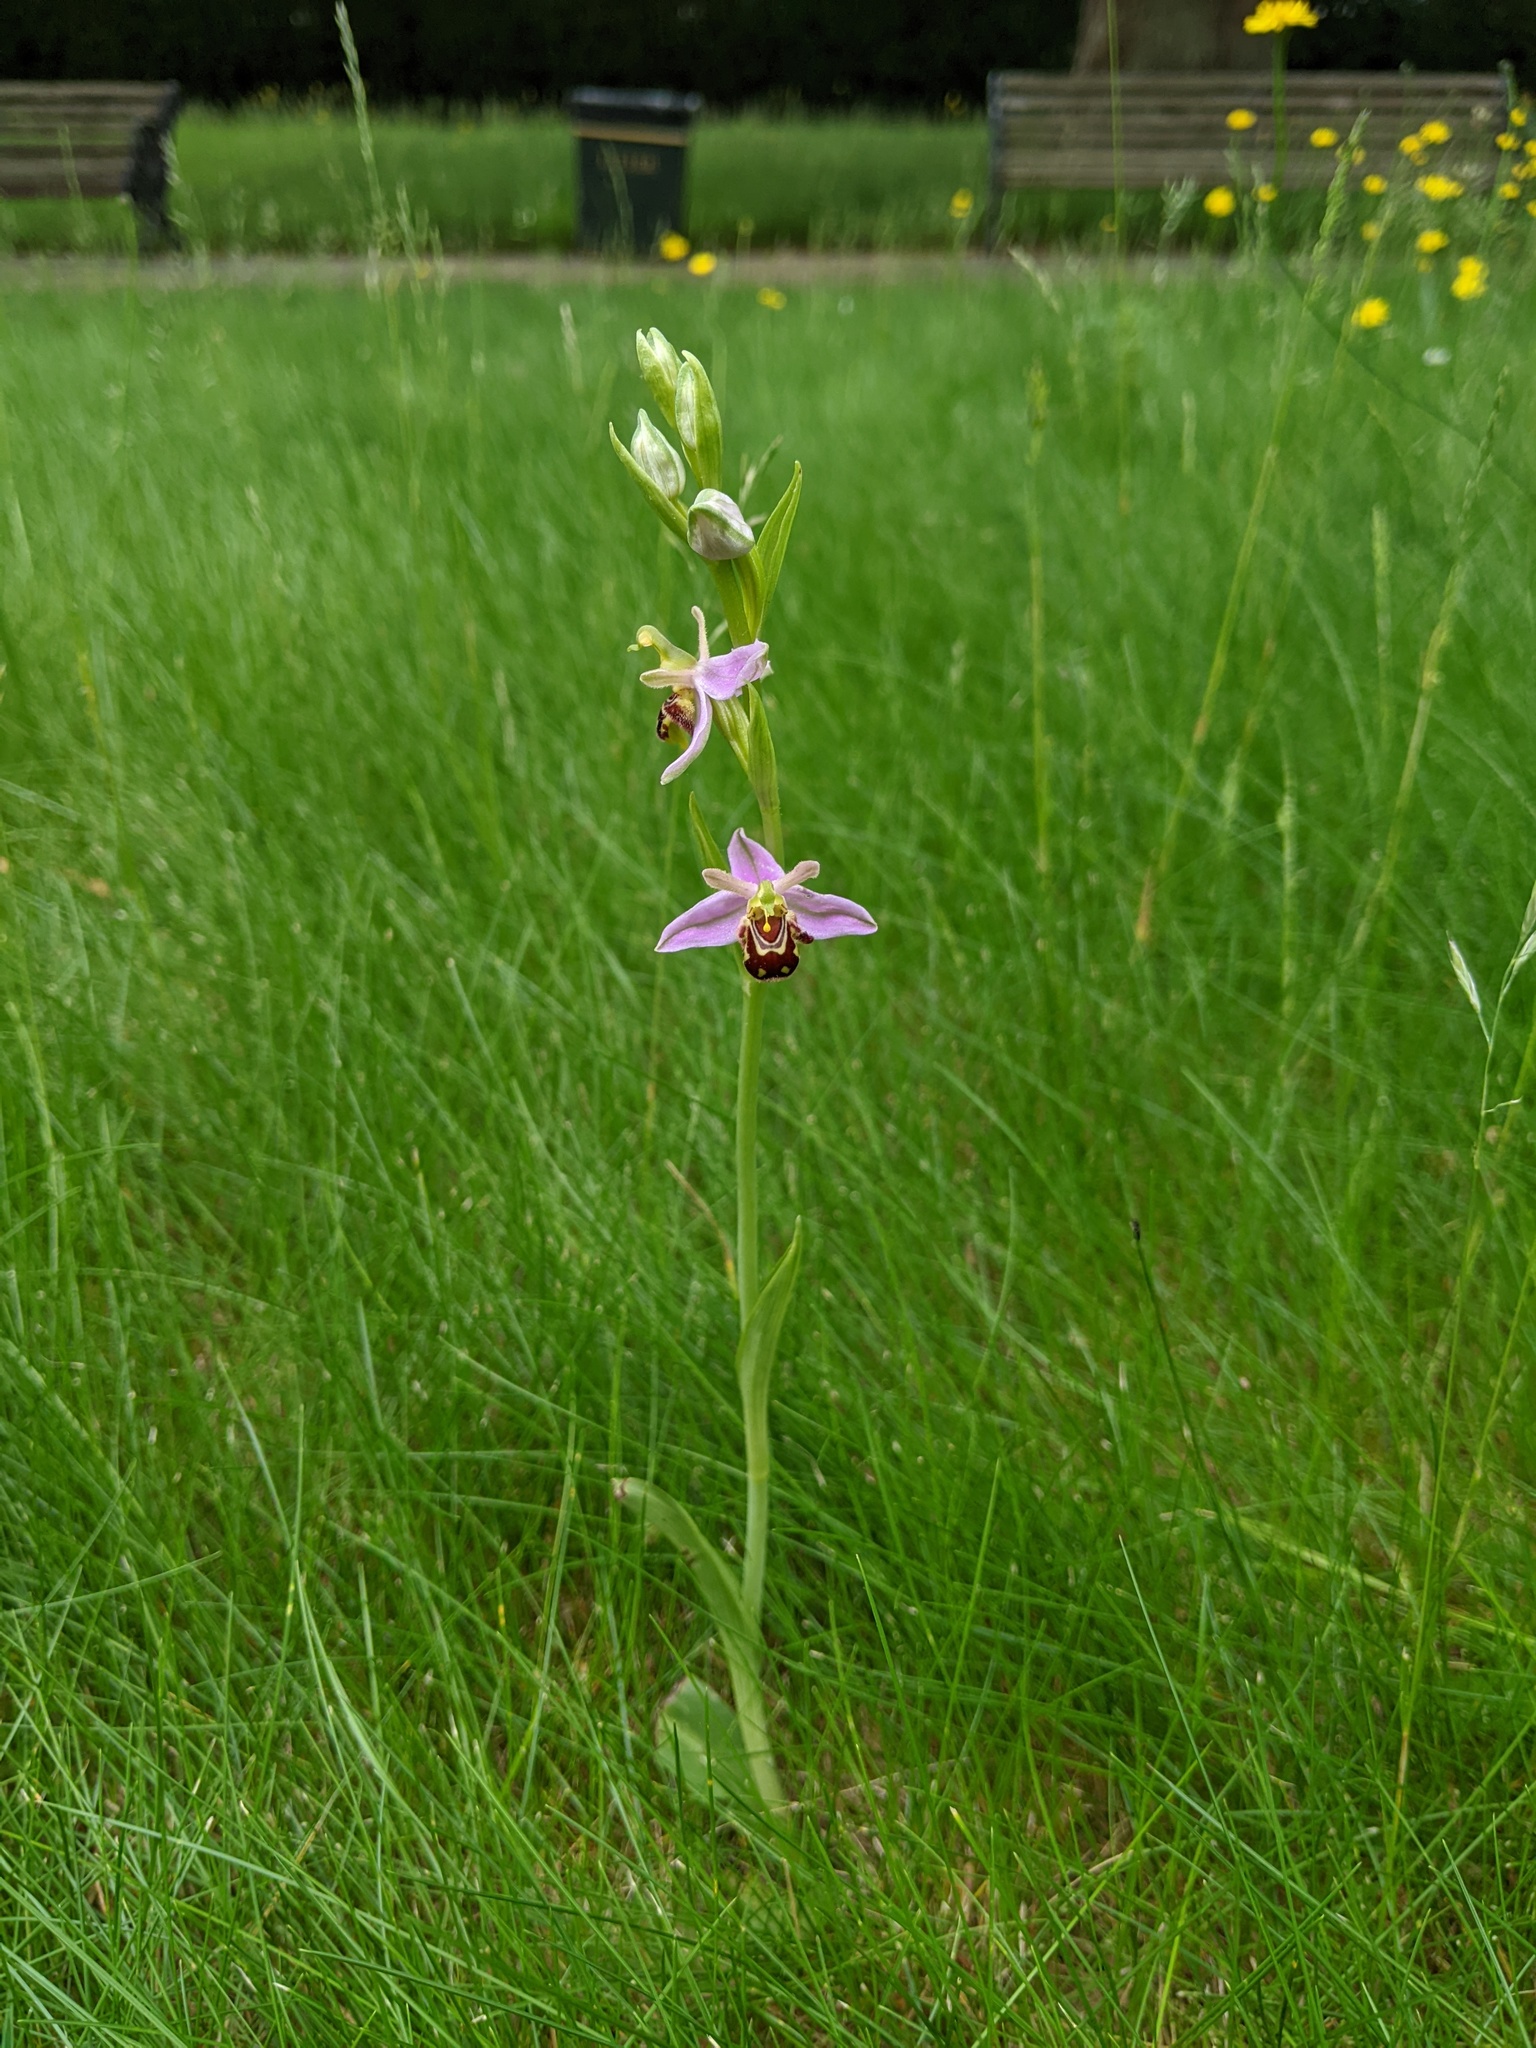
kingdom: Plantae
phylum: Tracheophyta
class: Liliopsida
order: Asparagales
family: Orchidaceae
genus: Ophrys
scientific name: Ophrys apifera
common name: Bee orchid
